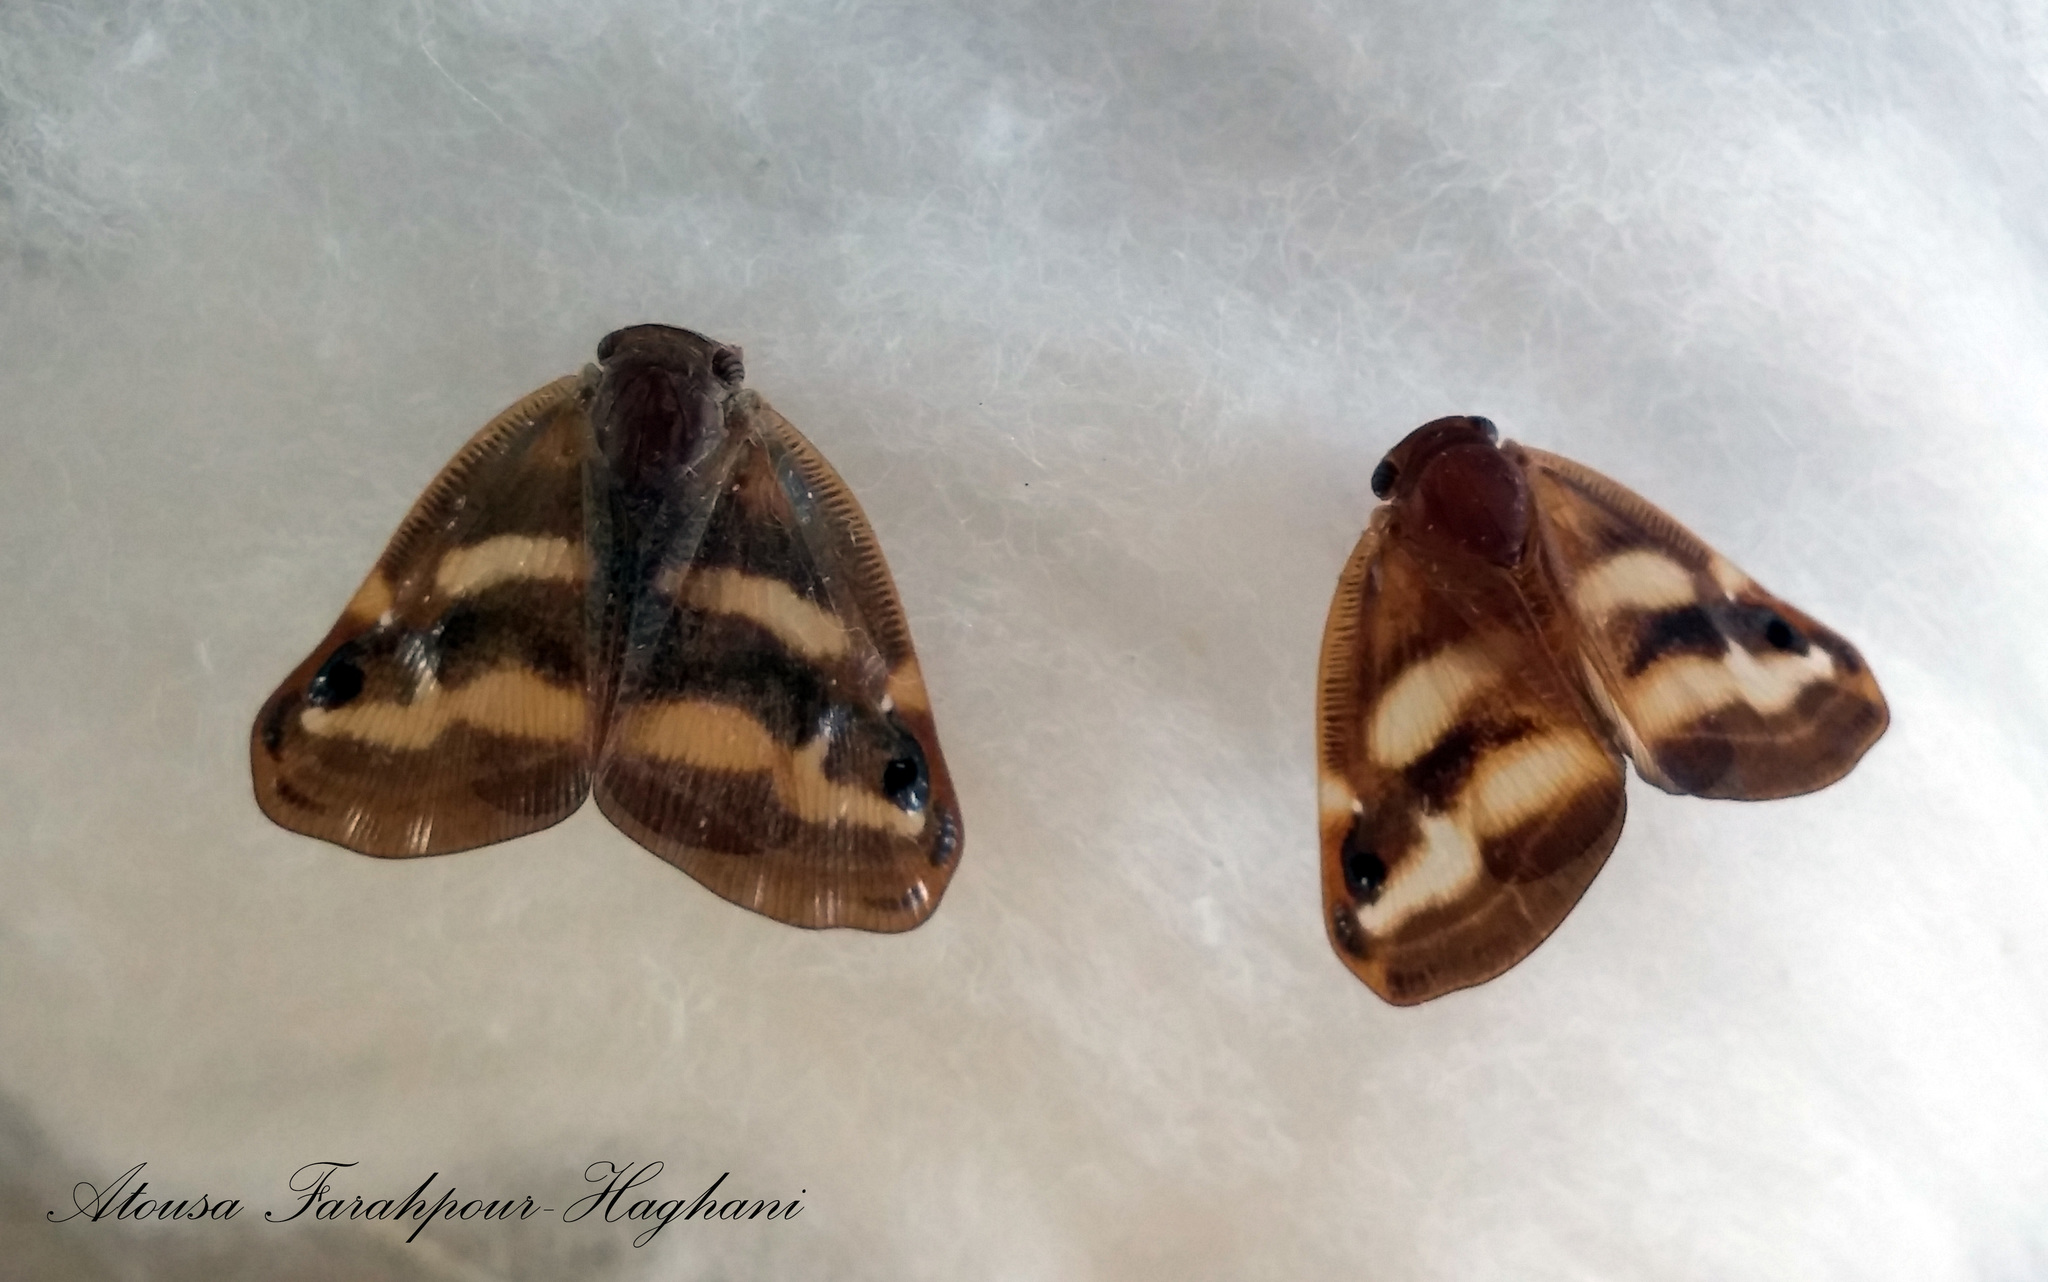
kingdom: Animalia
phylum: Arthropoda
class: Insecta
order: Hemiptera
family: Ricaniidae
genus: Orosanga
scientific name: Orosanga japonica
